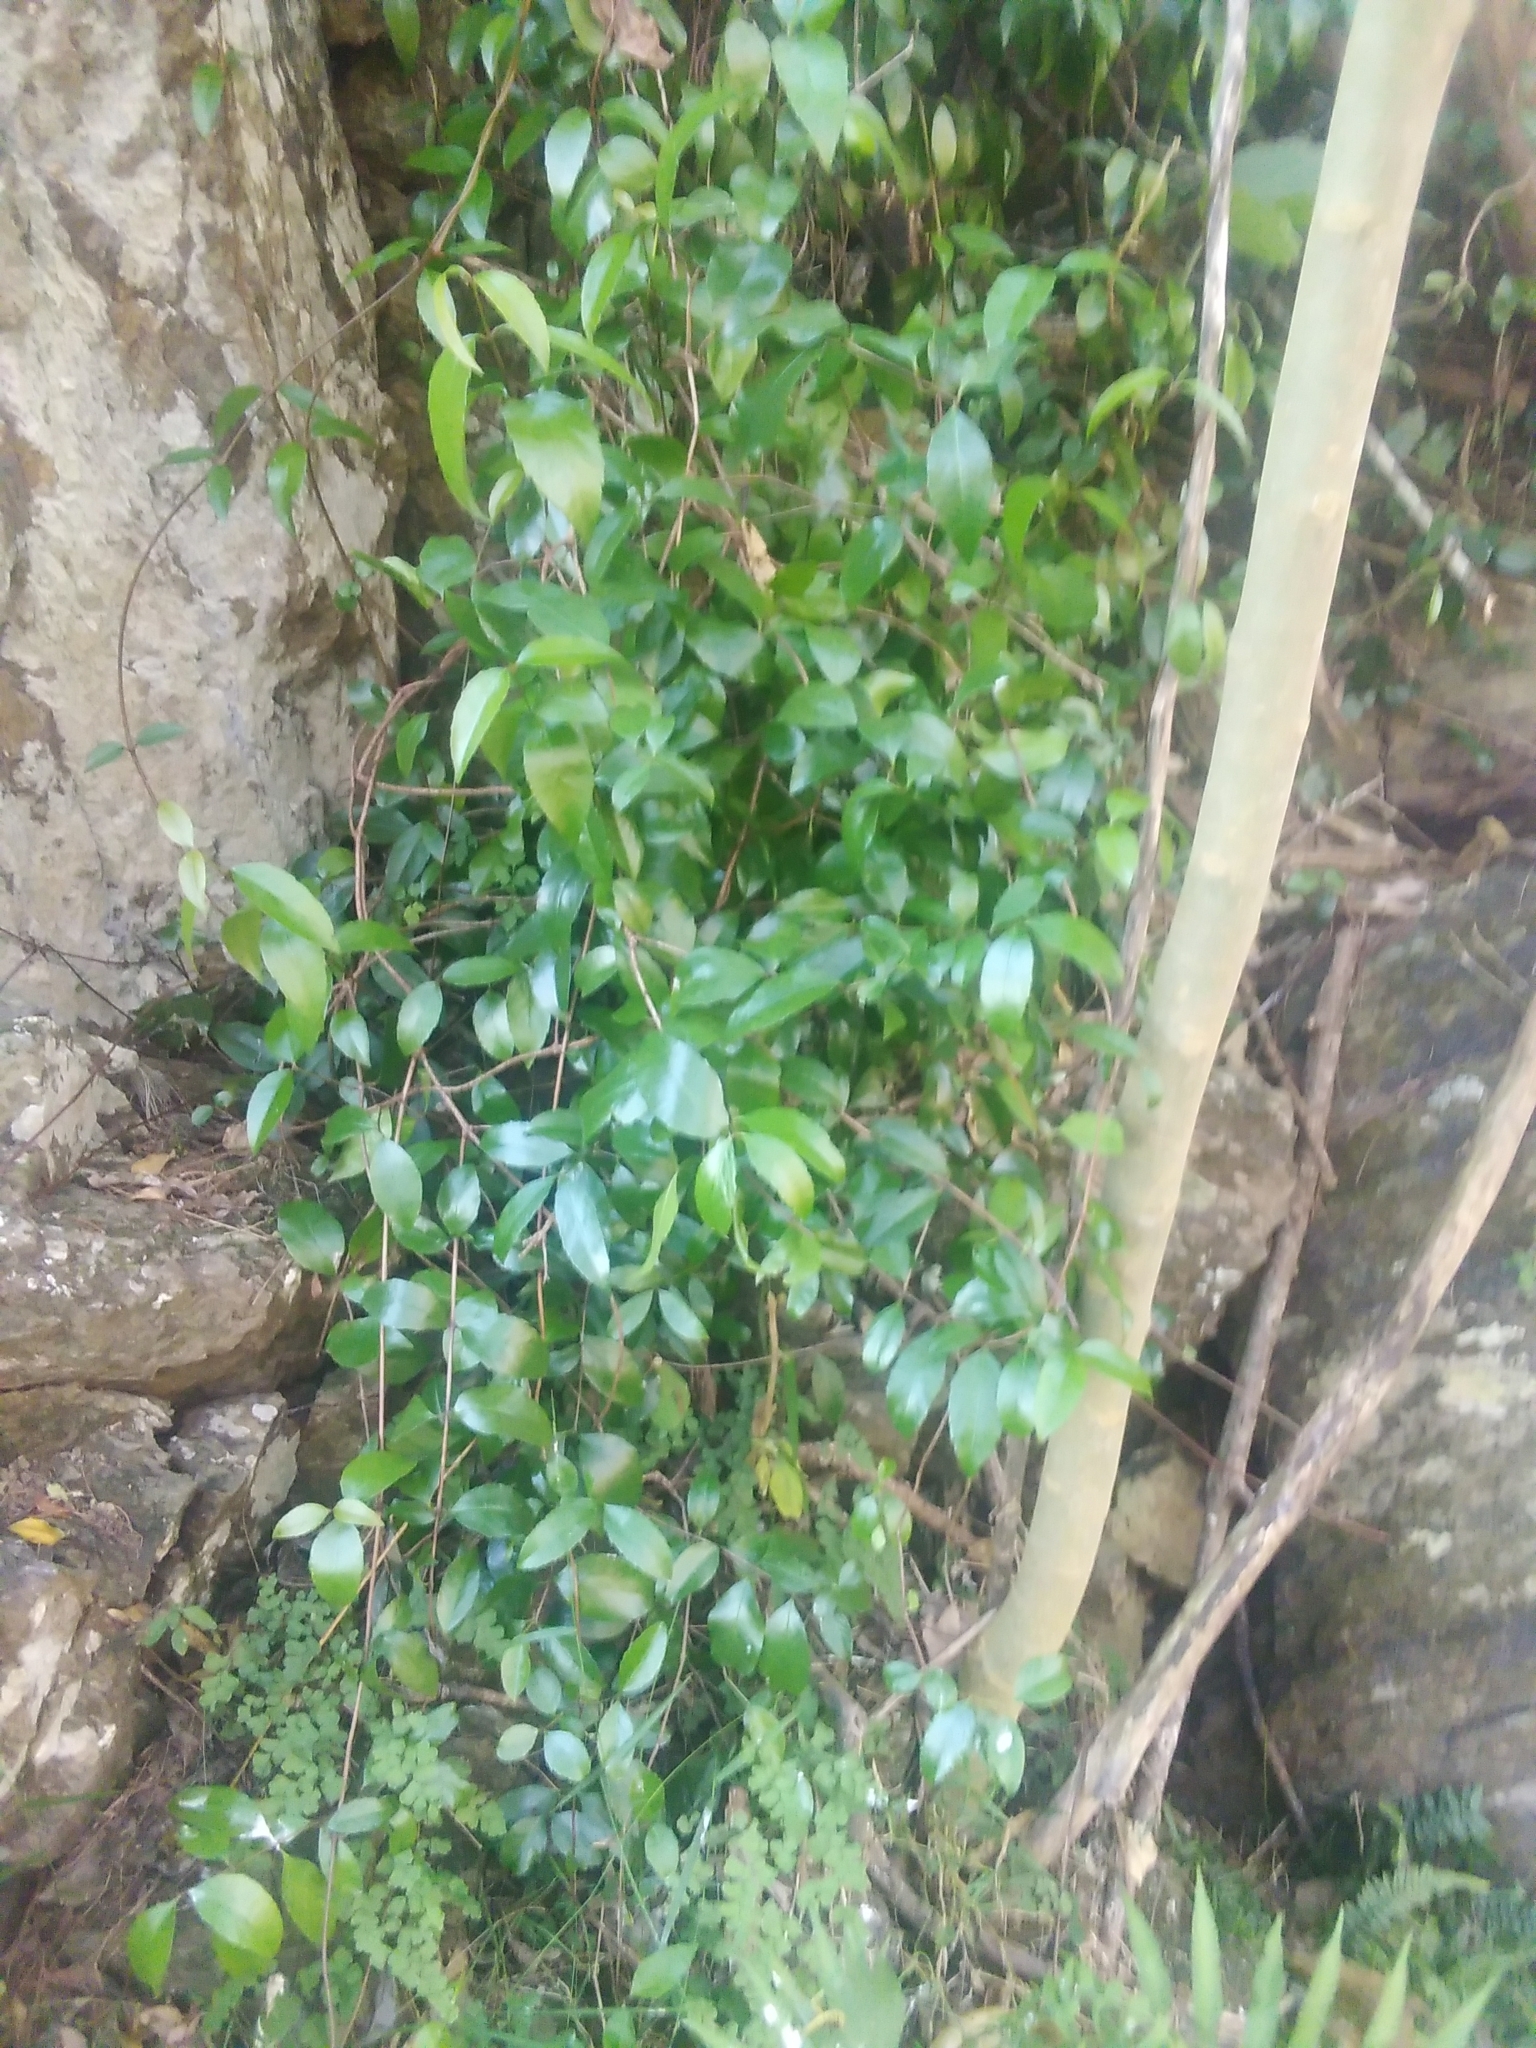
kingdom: Plantae
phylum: Tracheophyta
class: Magnoliopsida
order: Saxifragales
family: Aphanopetalaceae
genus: Aphanopetalum
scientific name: Aphanopetalum resinosum
